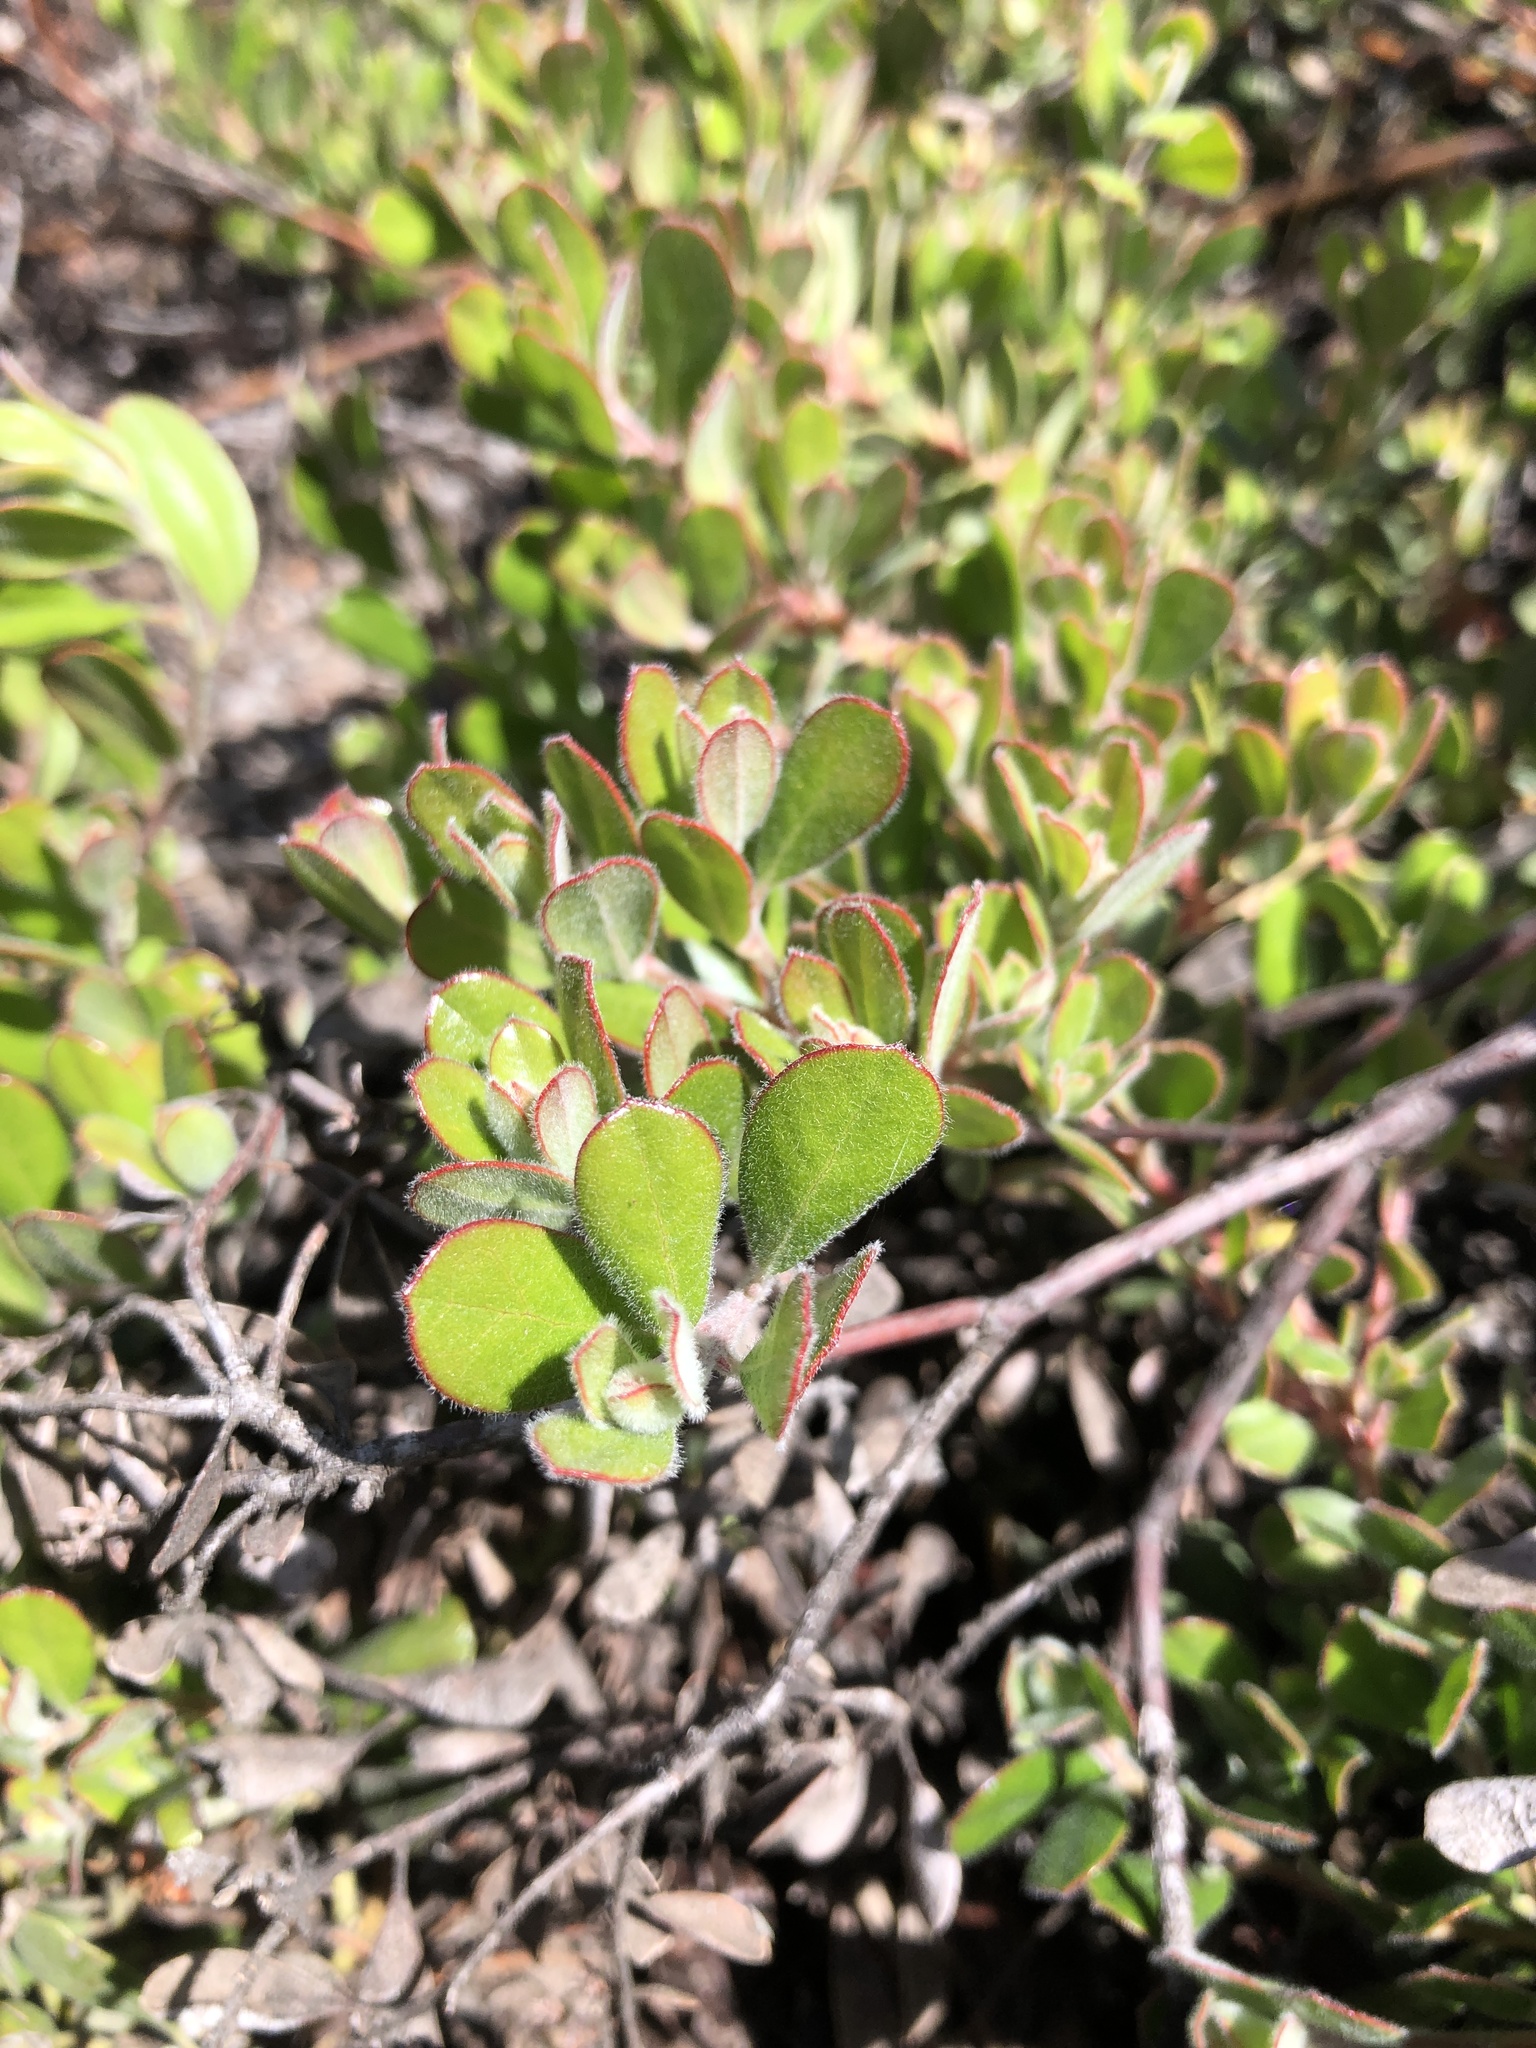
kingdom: Plantae
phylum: Tracheophyta
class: Magnoliopsida
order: Ericales
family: Ericaceae
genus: Arctostaphylos
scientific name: Arctostaphylos pumila
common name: Sandmat manzanita
